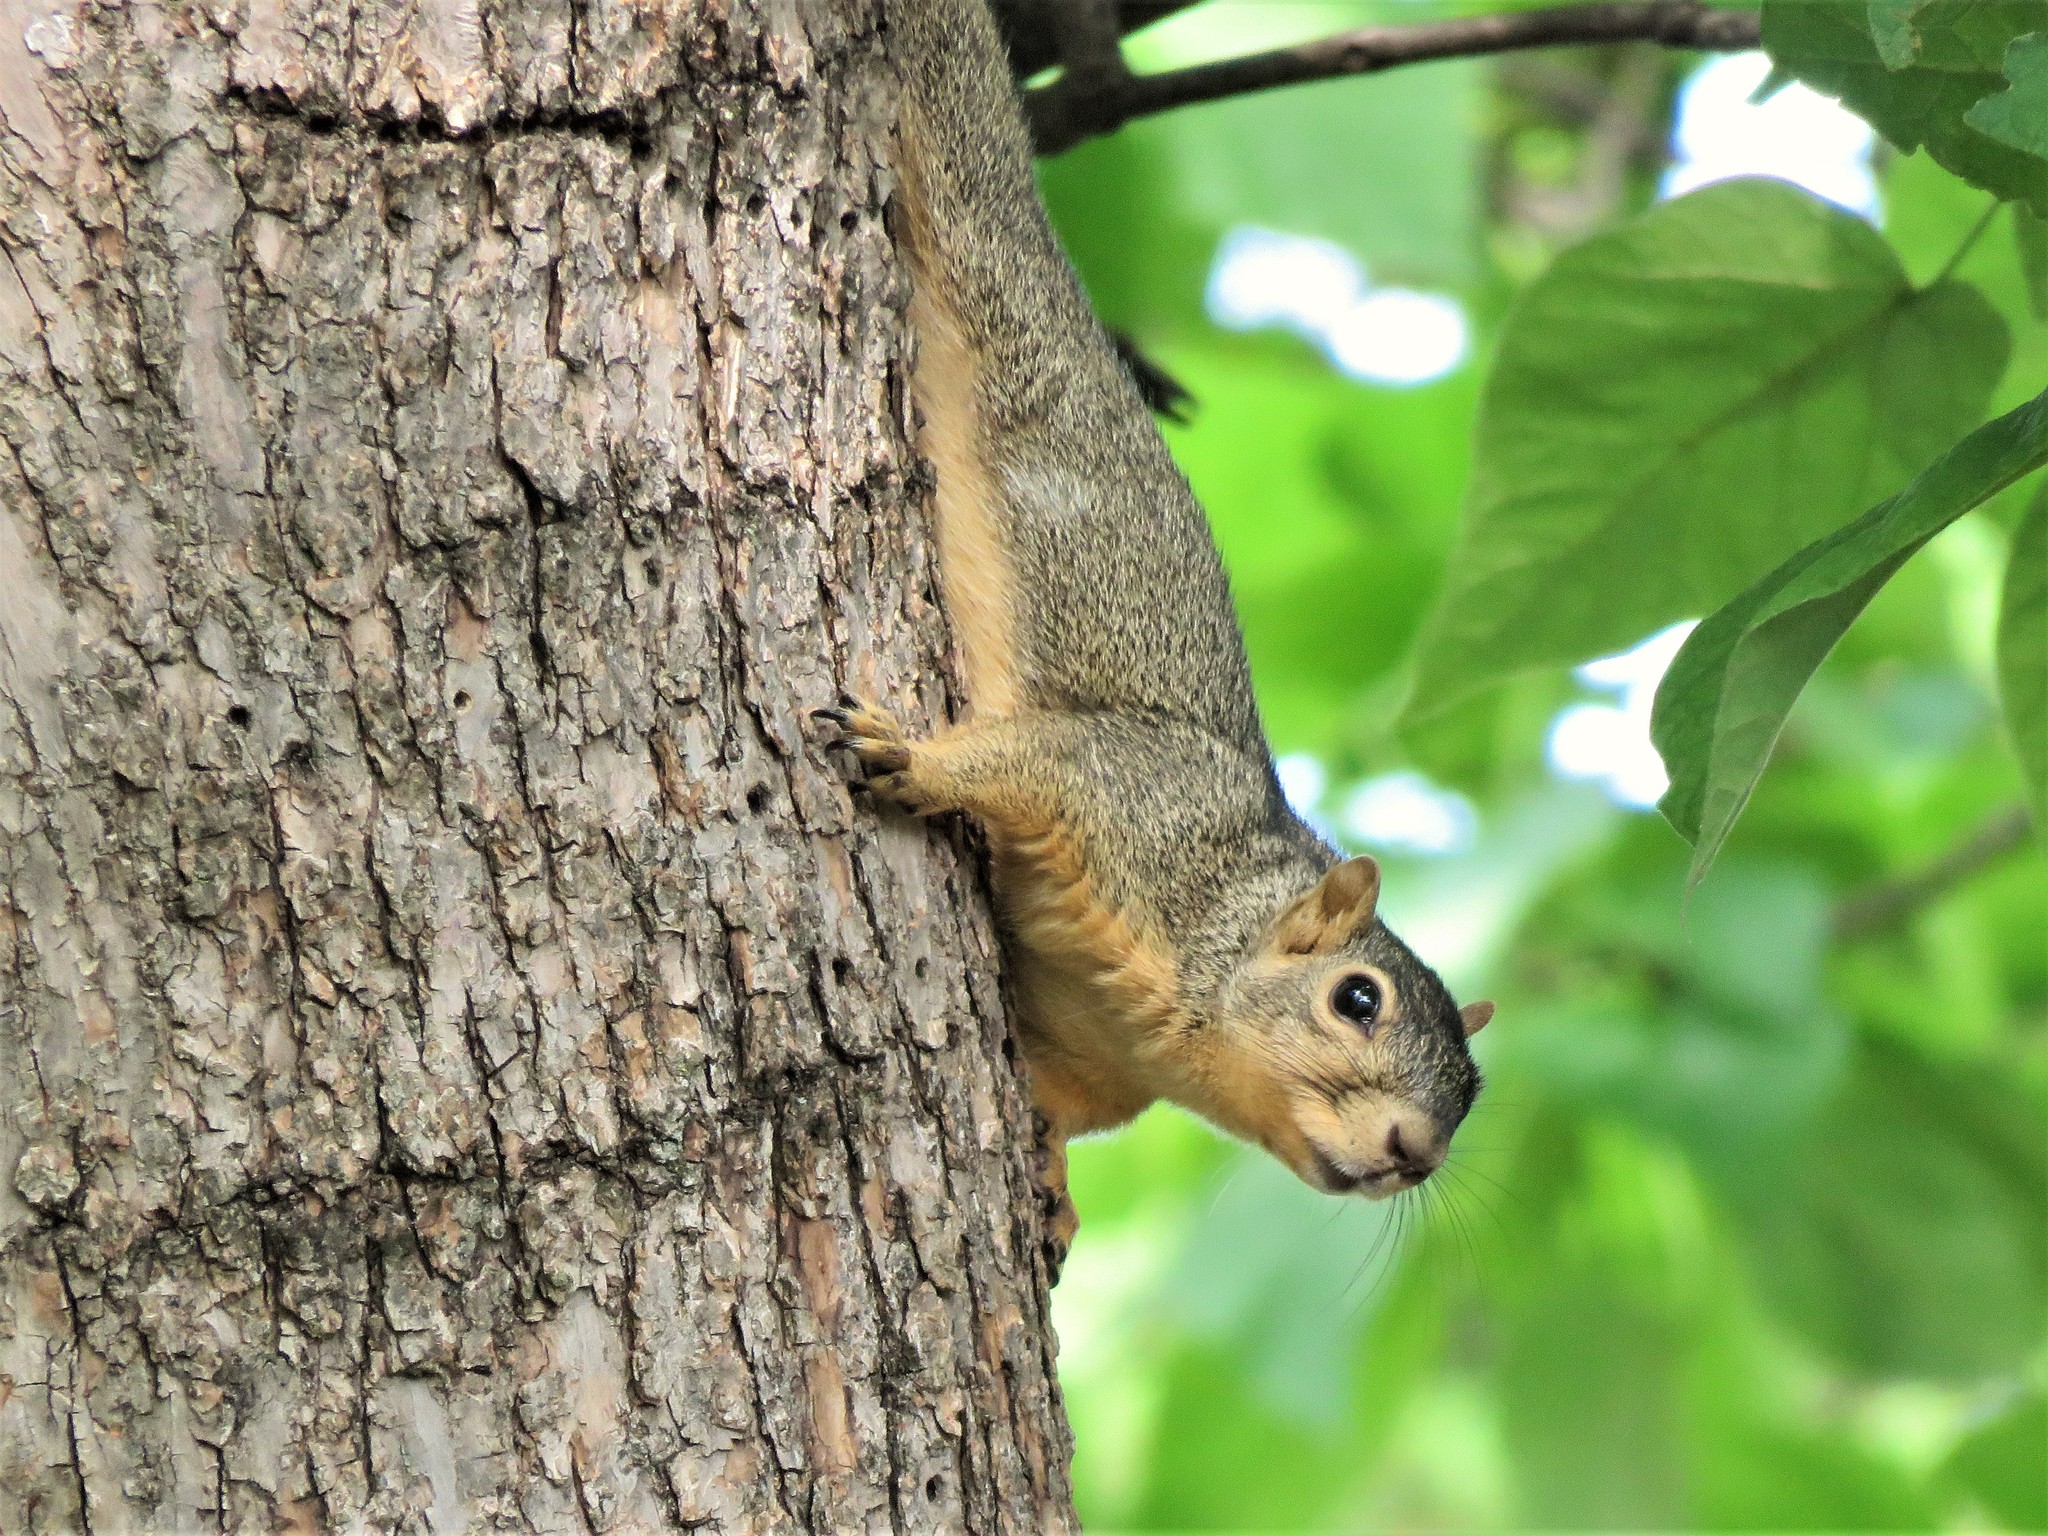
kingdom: Animalia
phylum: Chordata
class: Mammalia
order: Rodentia
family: Sciuridae
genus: Sciurus
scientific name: Sciurus niger
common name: Fox squirrel
